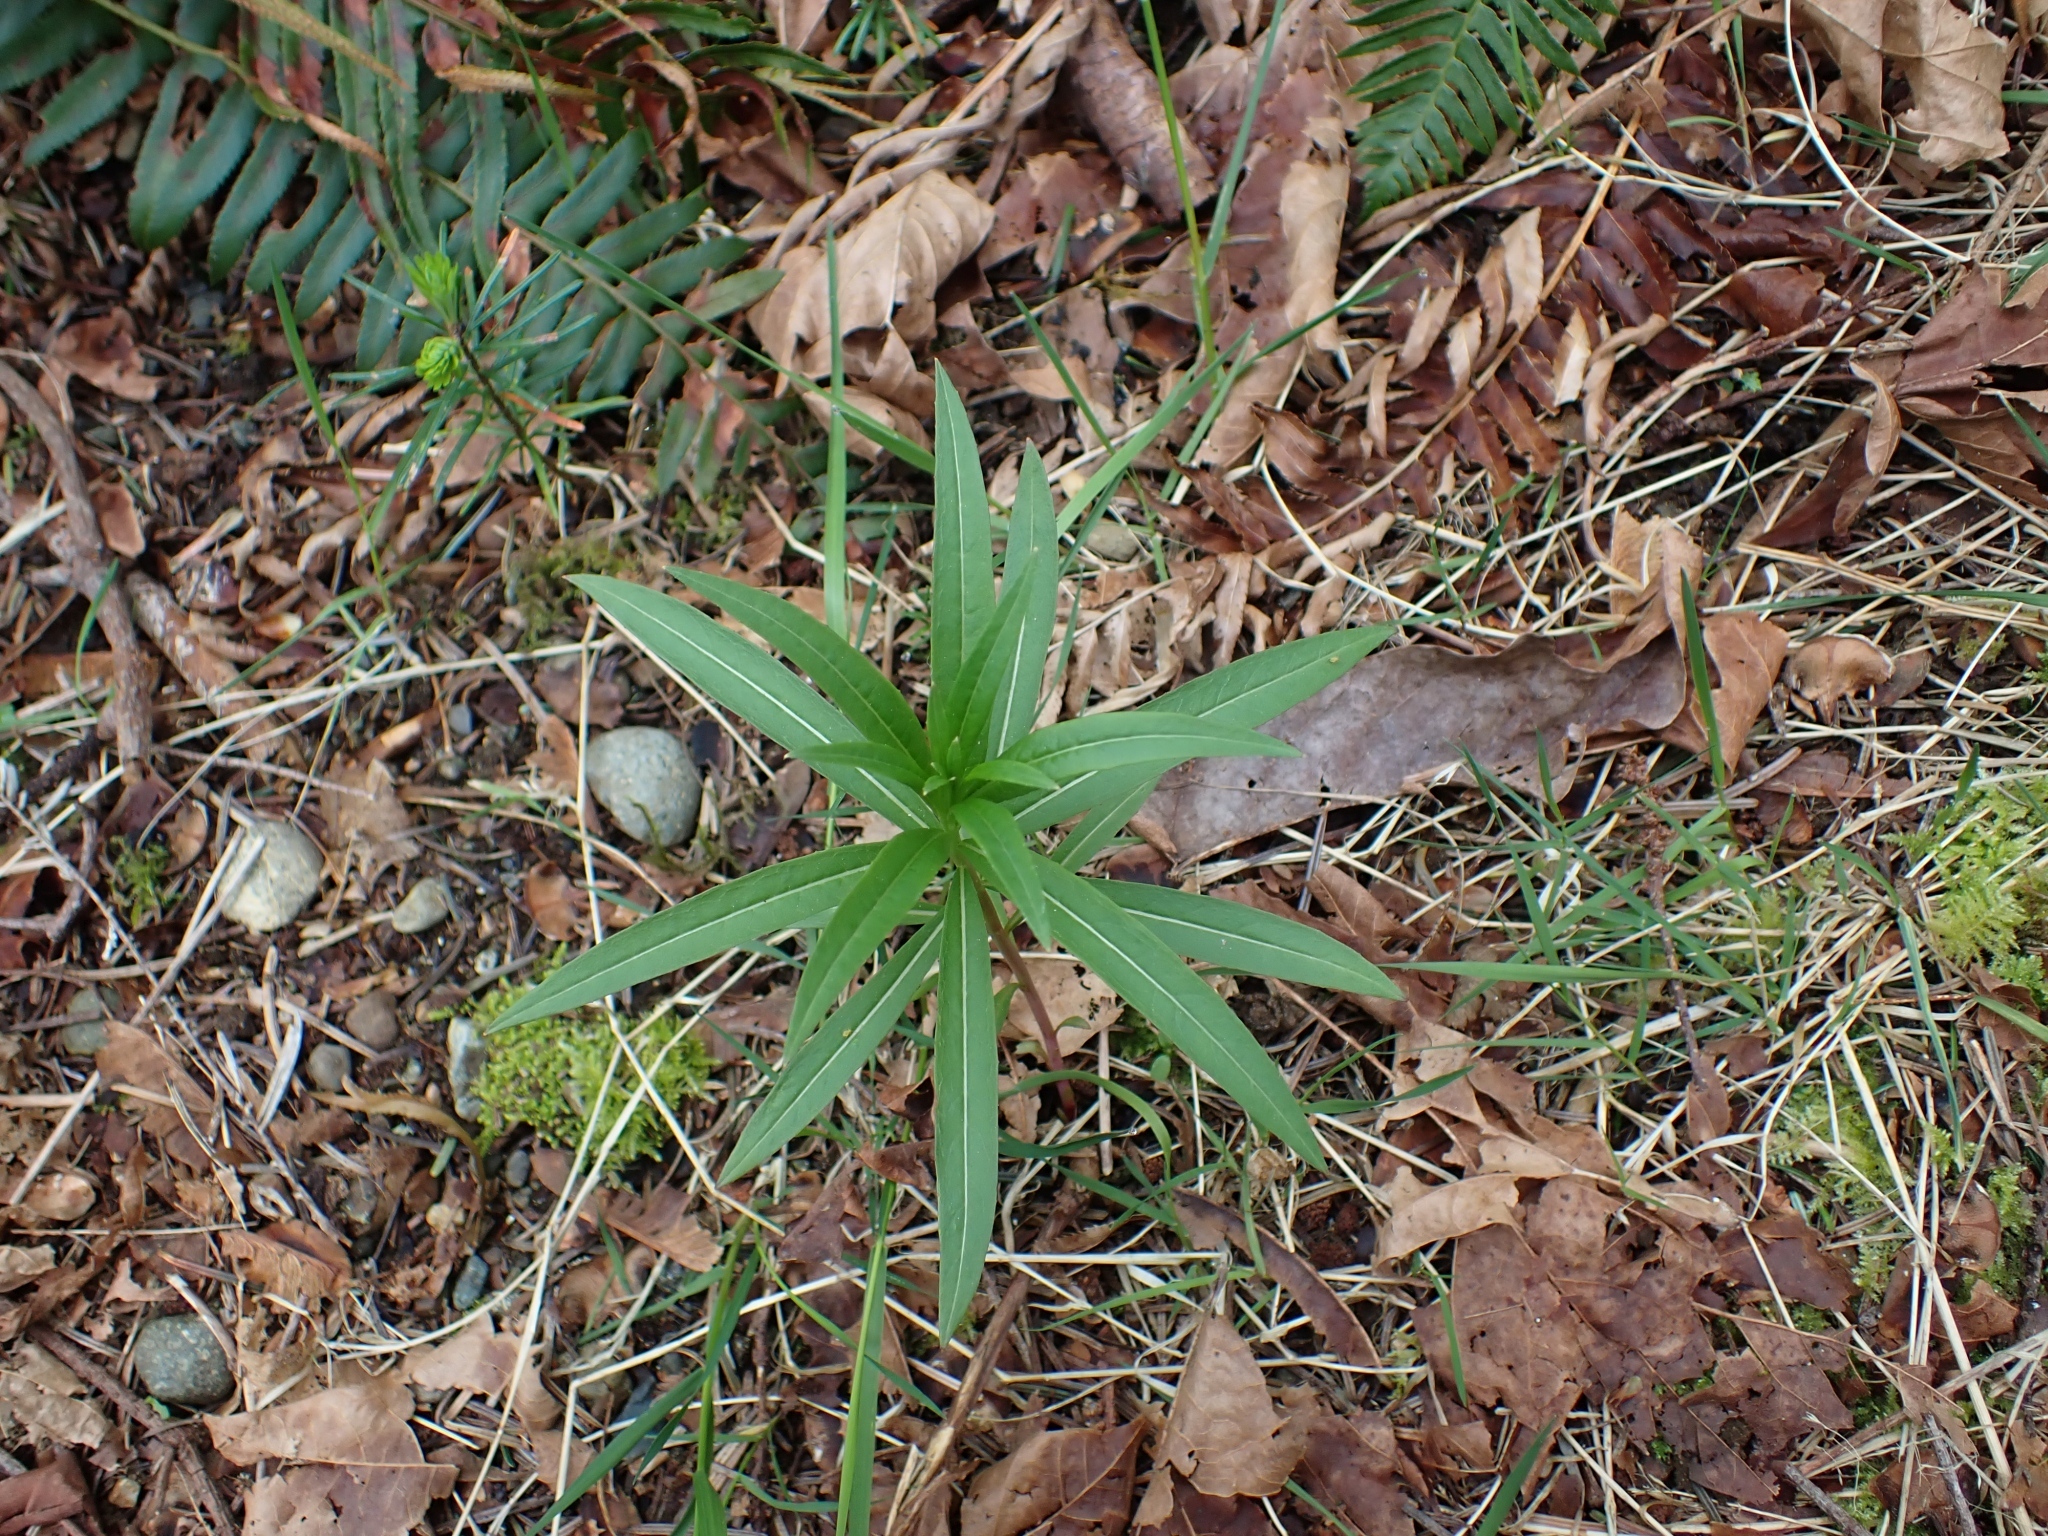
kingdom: Plantae
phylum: Tracheophyta
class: Magnoliopsida
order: Myrtales
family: Onagraceae
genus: Chamaenerion
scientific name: Chamaenerion angustifolium
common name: Fireweed
